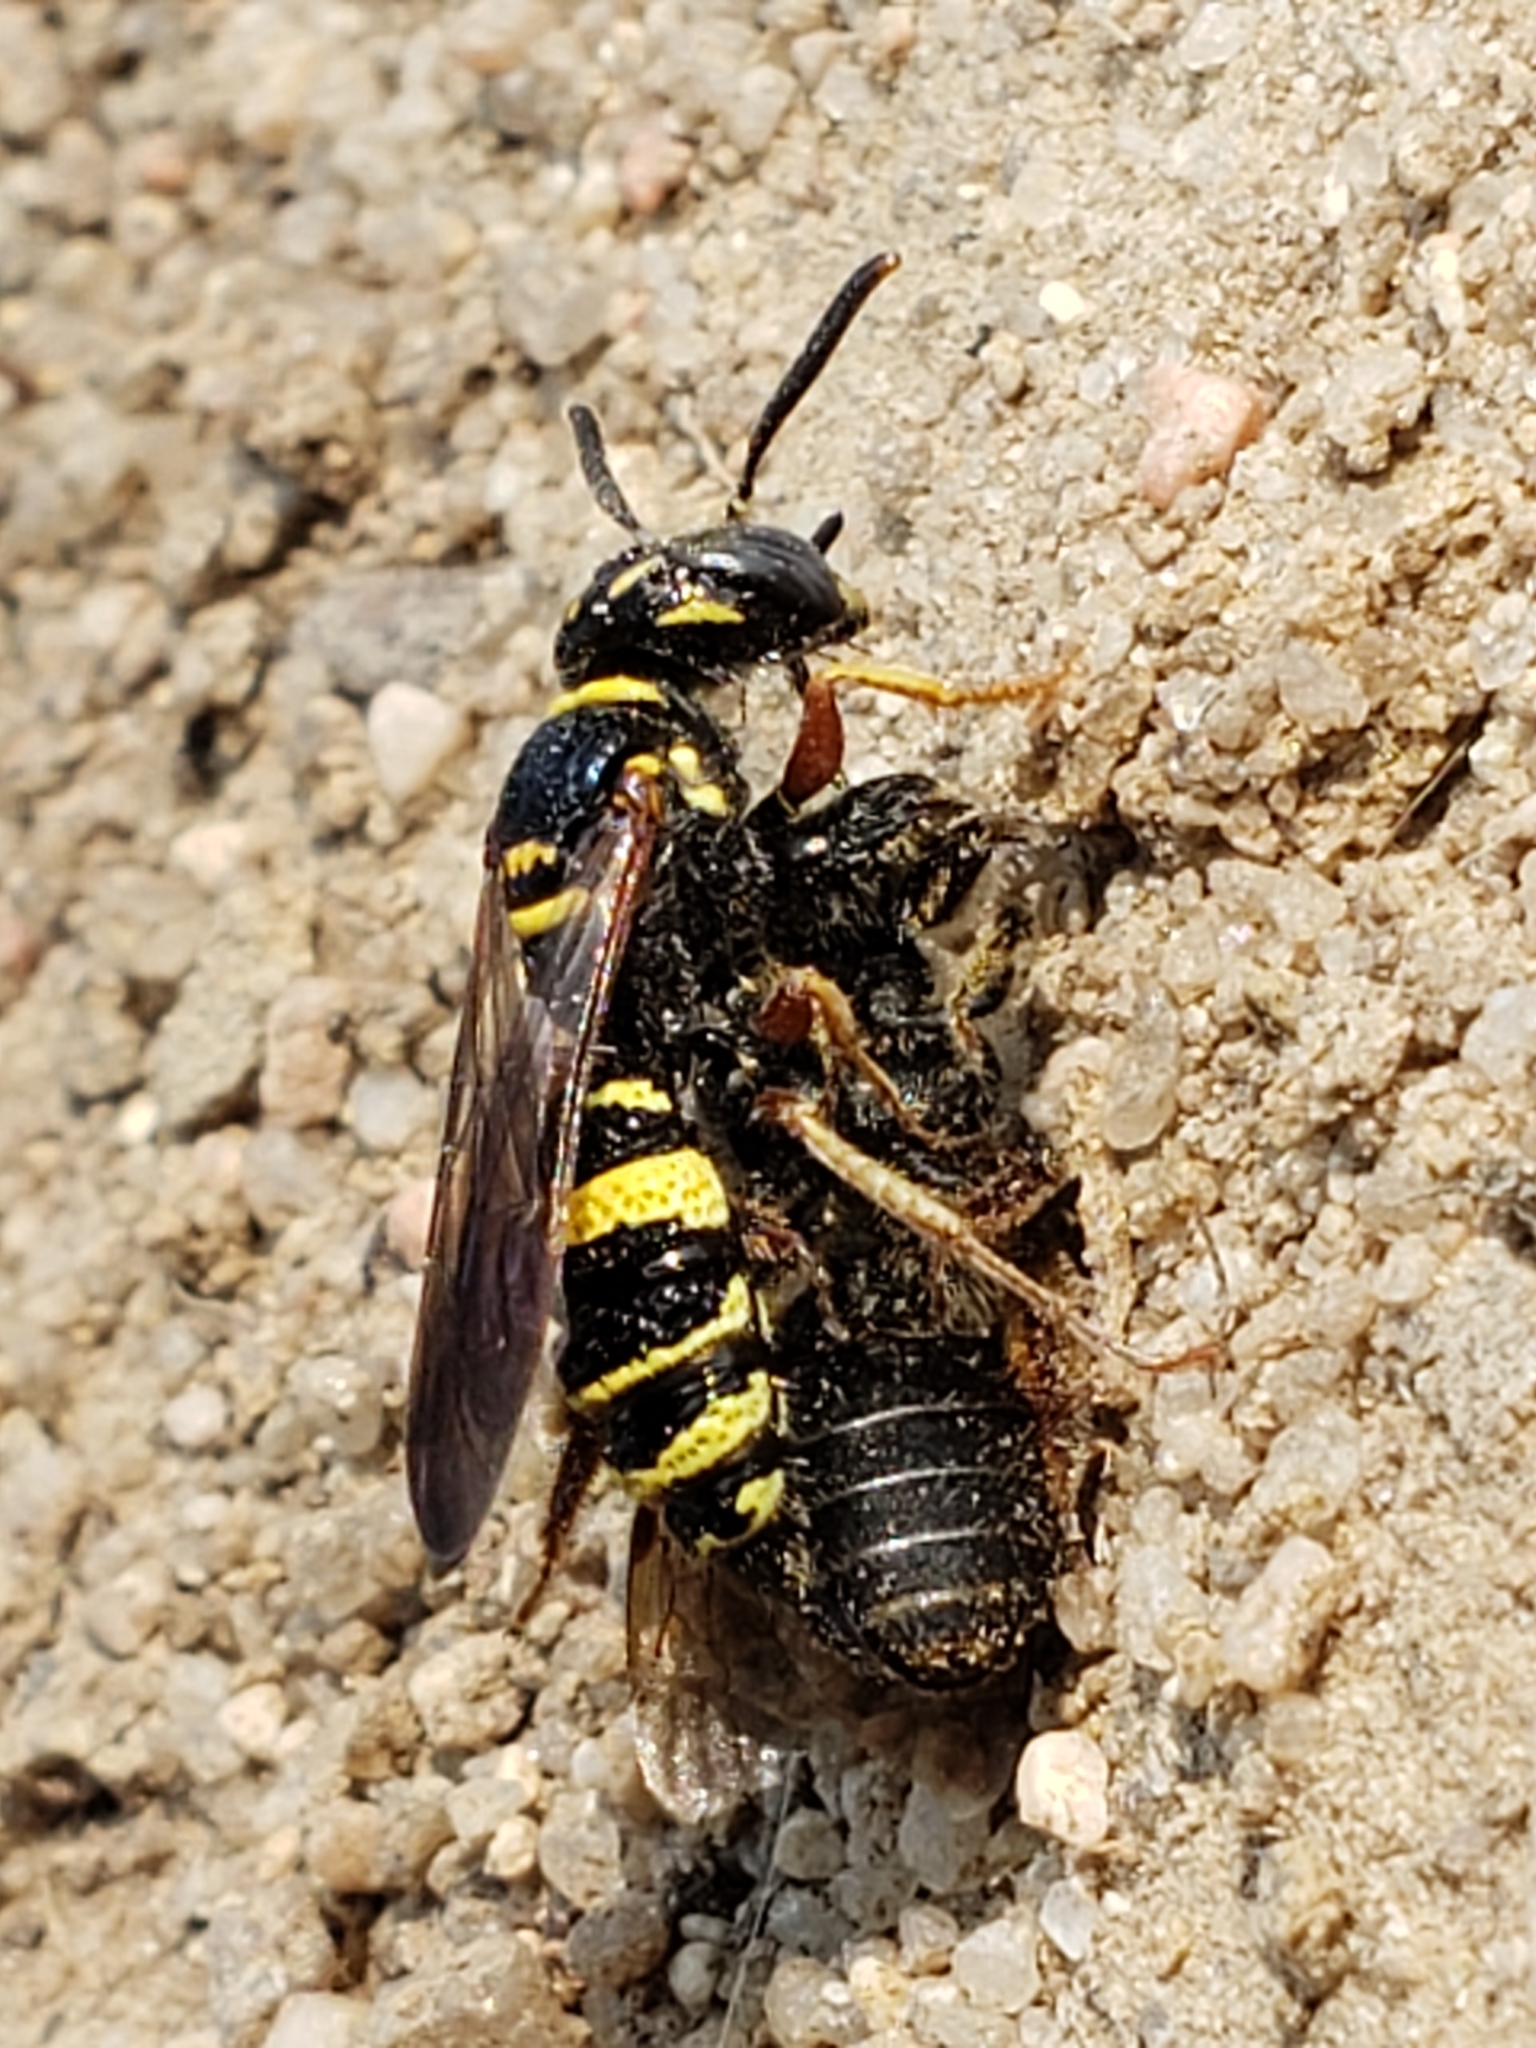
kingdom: Animalia
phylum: Arthropoda
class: Insecta
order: Hymenoptera
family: Crabronidae
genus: Philanthus
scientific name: Philanthus gibbosus
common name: Humped beewolf
